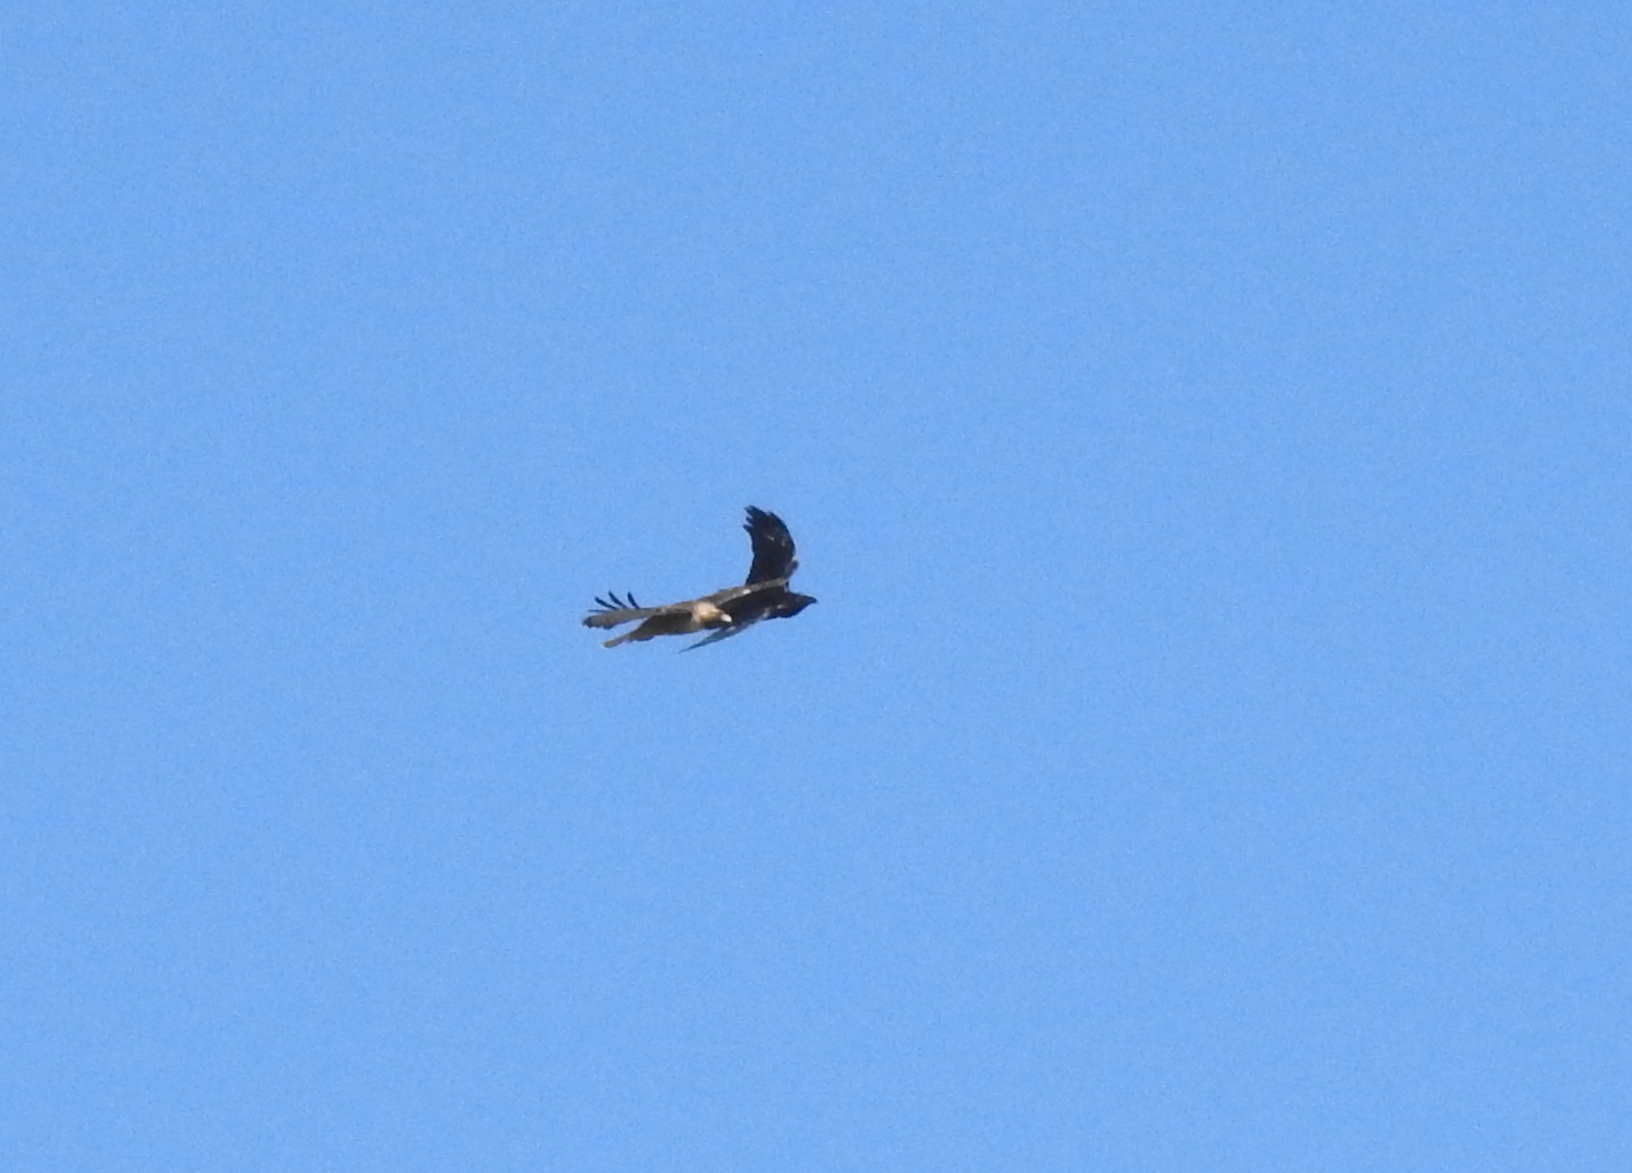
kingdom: Animalia
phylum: Chordata
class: Aves
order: Passeriformes
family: Corvidae
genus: Corvus
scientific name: Corvus corax
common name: Common raven
